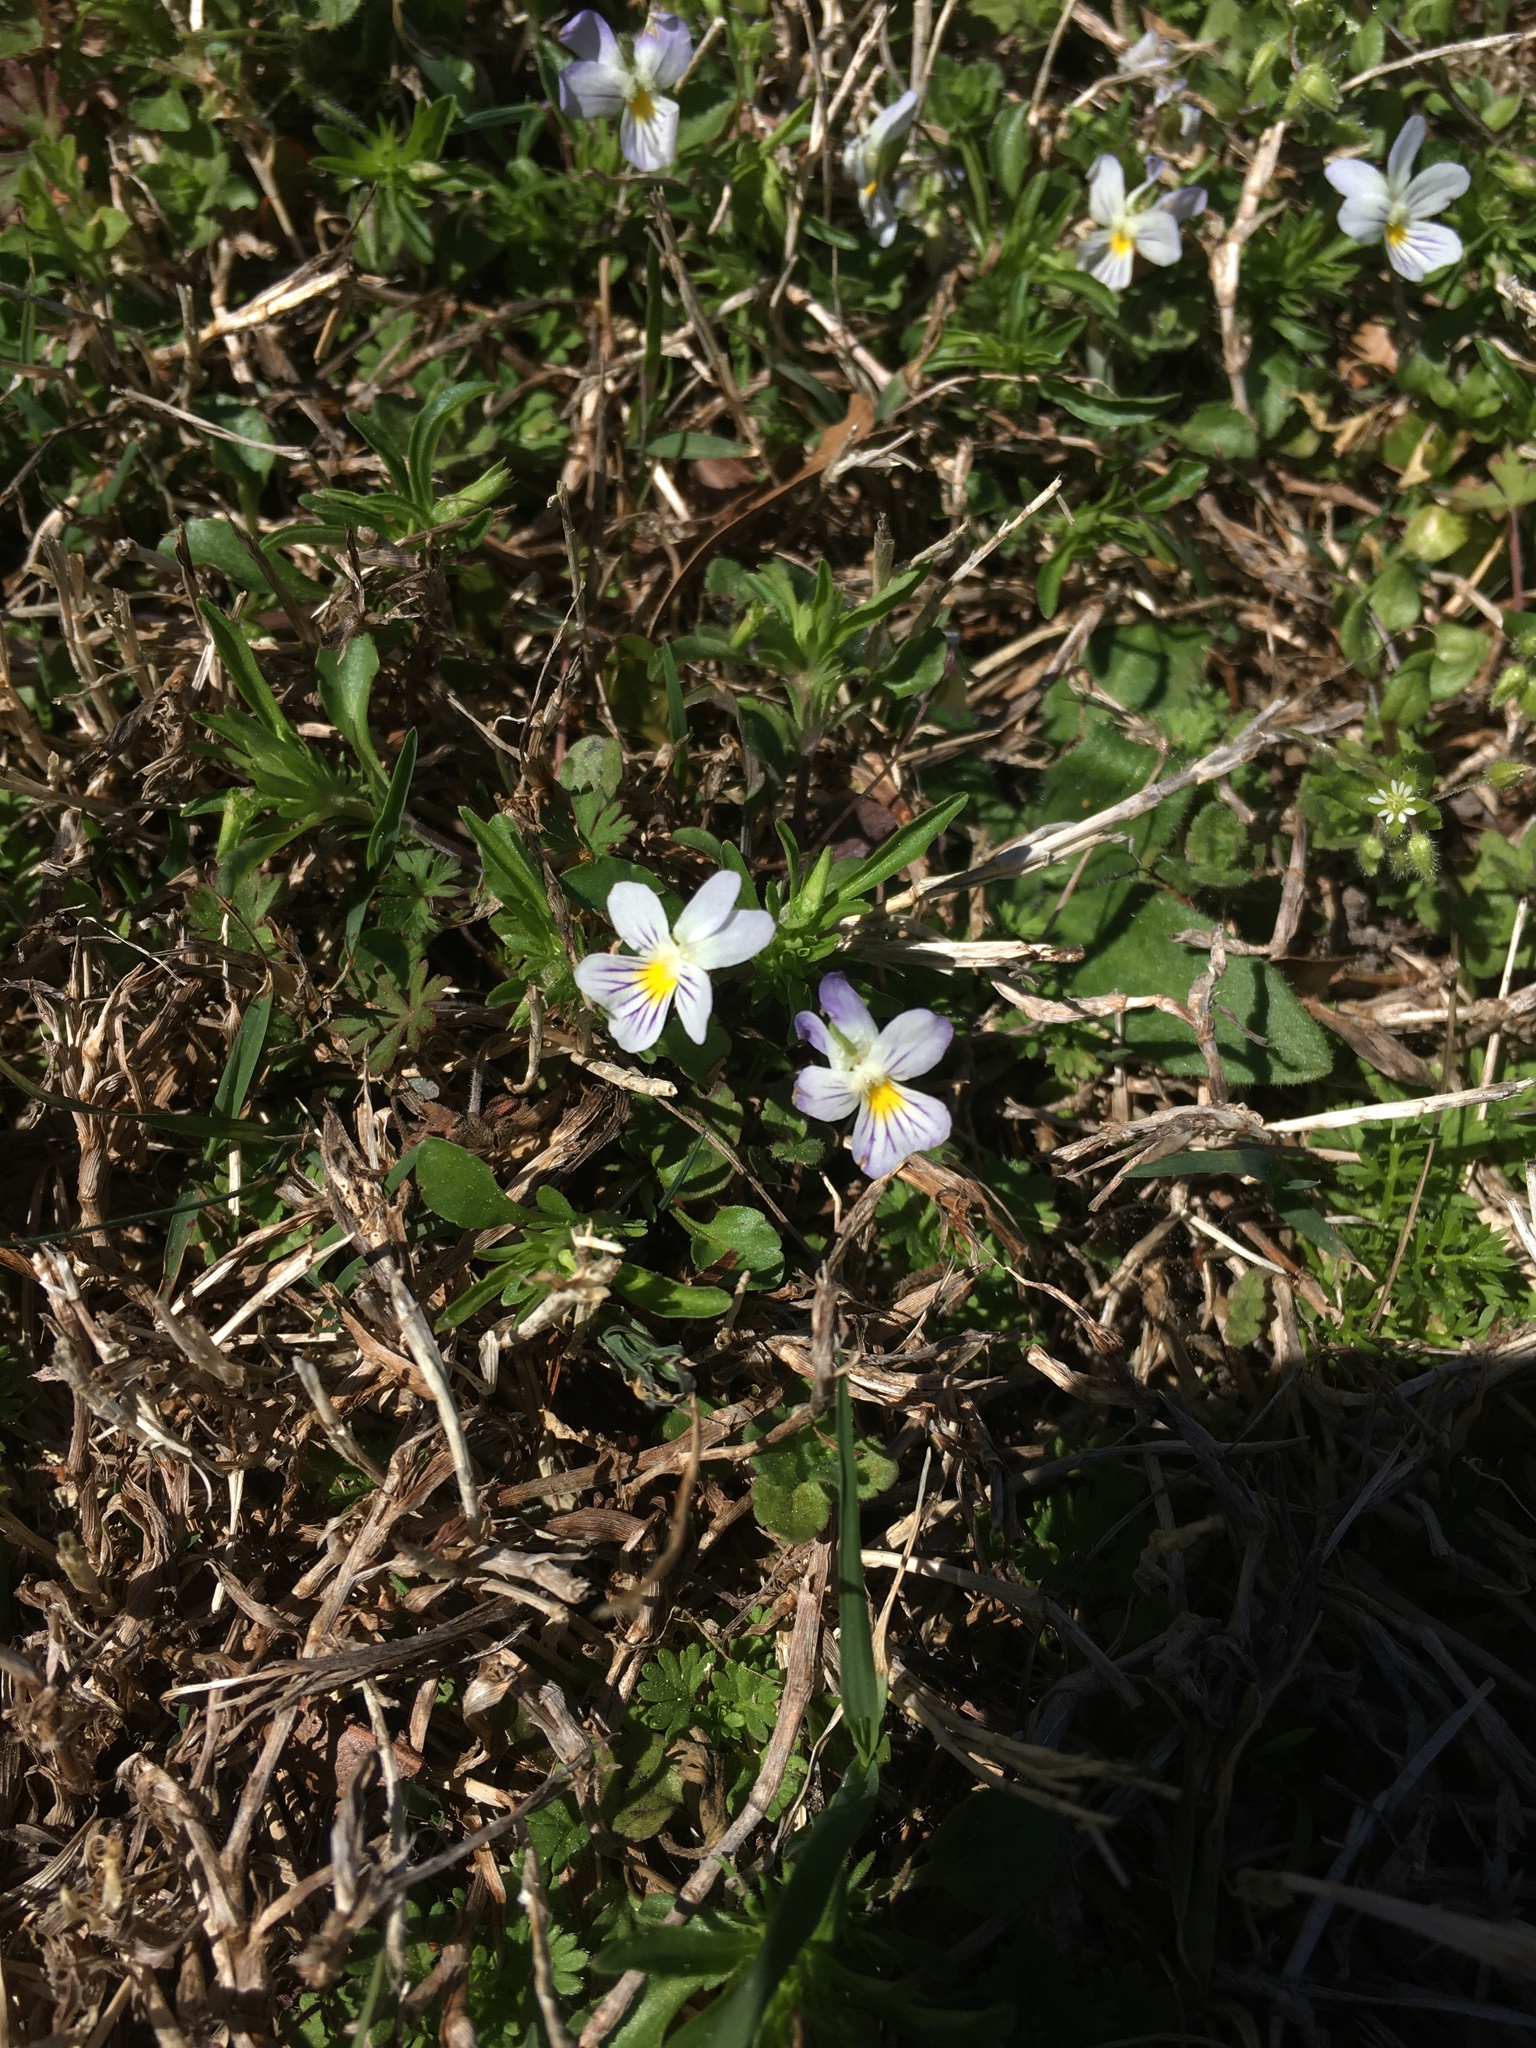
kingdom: Plantae
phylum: Tracheophyta
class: Magnoliopsida
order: Malpighiales
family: Violaceae
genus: Viola
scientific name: Viola rafinesquei
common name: American field pansy
